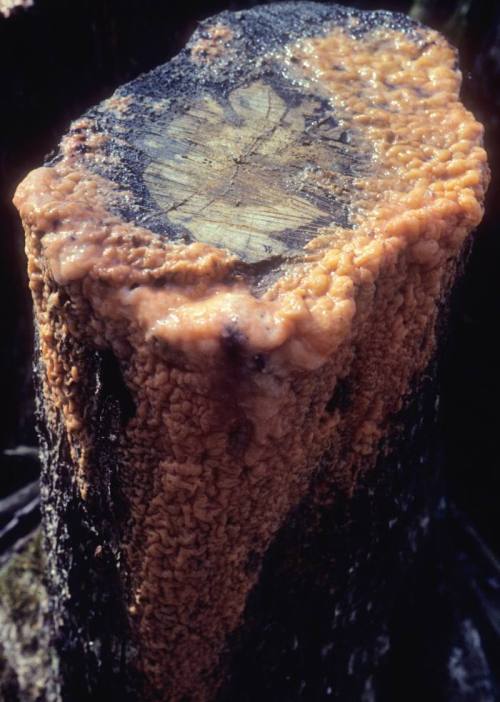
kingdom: Fungi
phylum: Ascomycota
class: Sordariomycetes
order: Hypocreales
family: Nectriaceae
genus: Fusicolla
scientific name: Fusicolla merismoides
